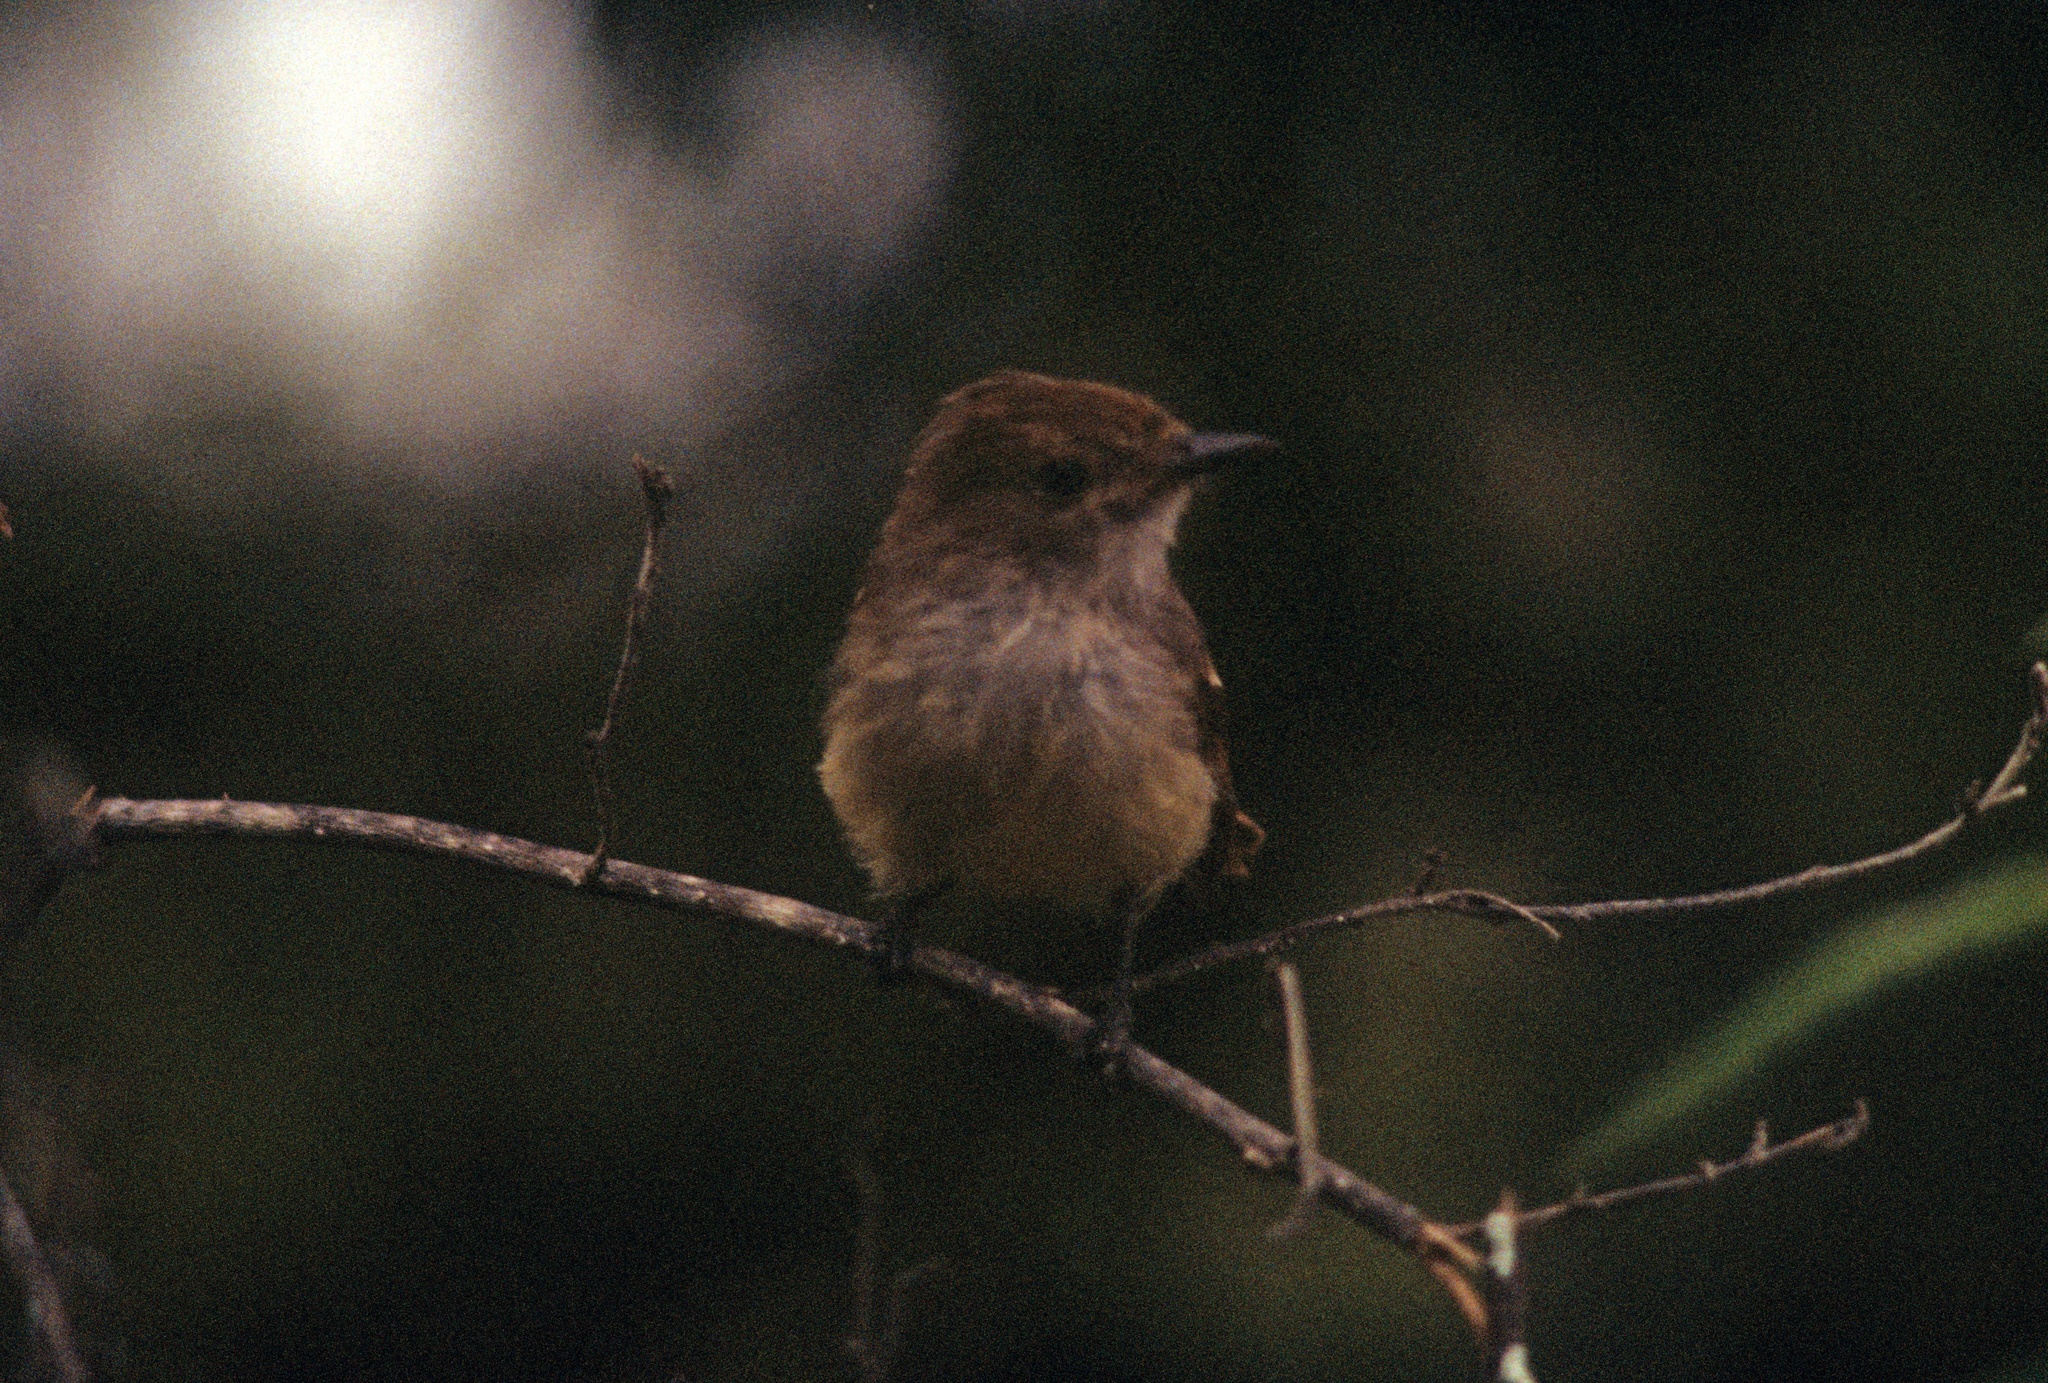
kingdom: Animalia
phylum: Chordata
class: Aves
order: Passeriformes
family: Tyrannidae
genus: Myiarchus
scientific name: Myiarchus magnirostris
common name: Galapagos flycatcher
